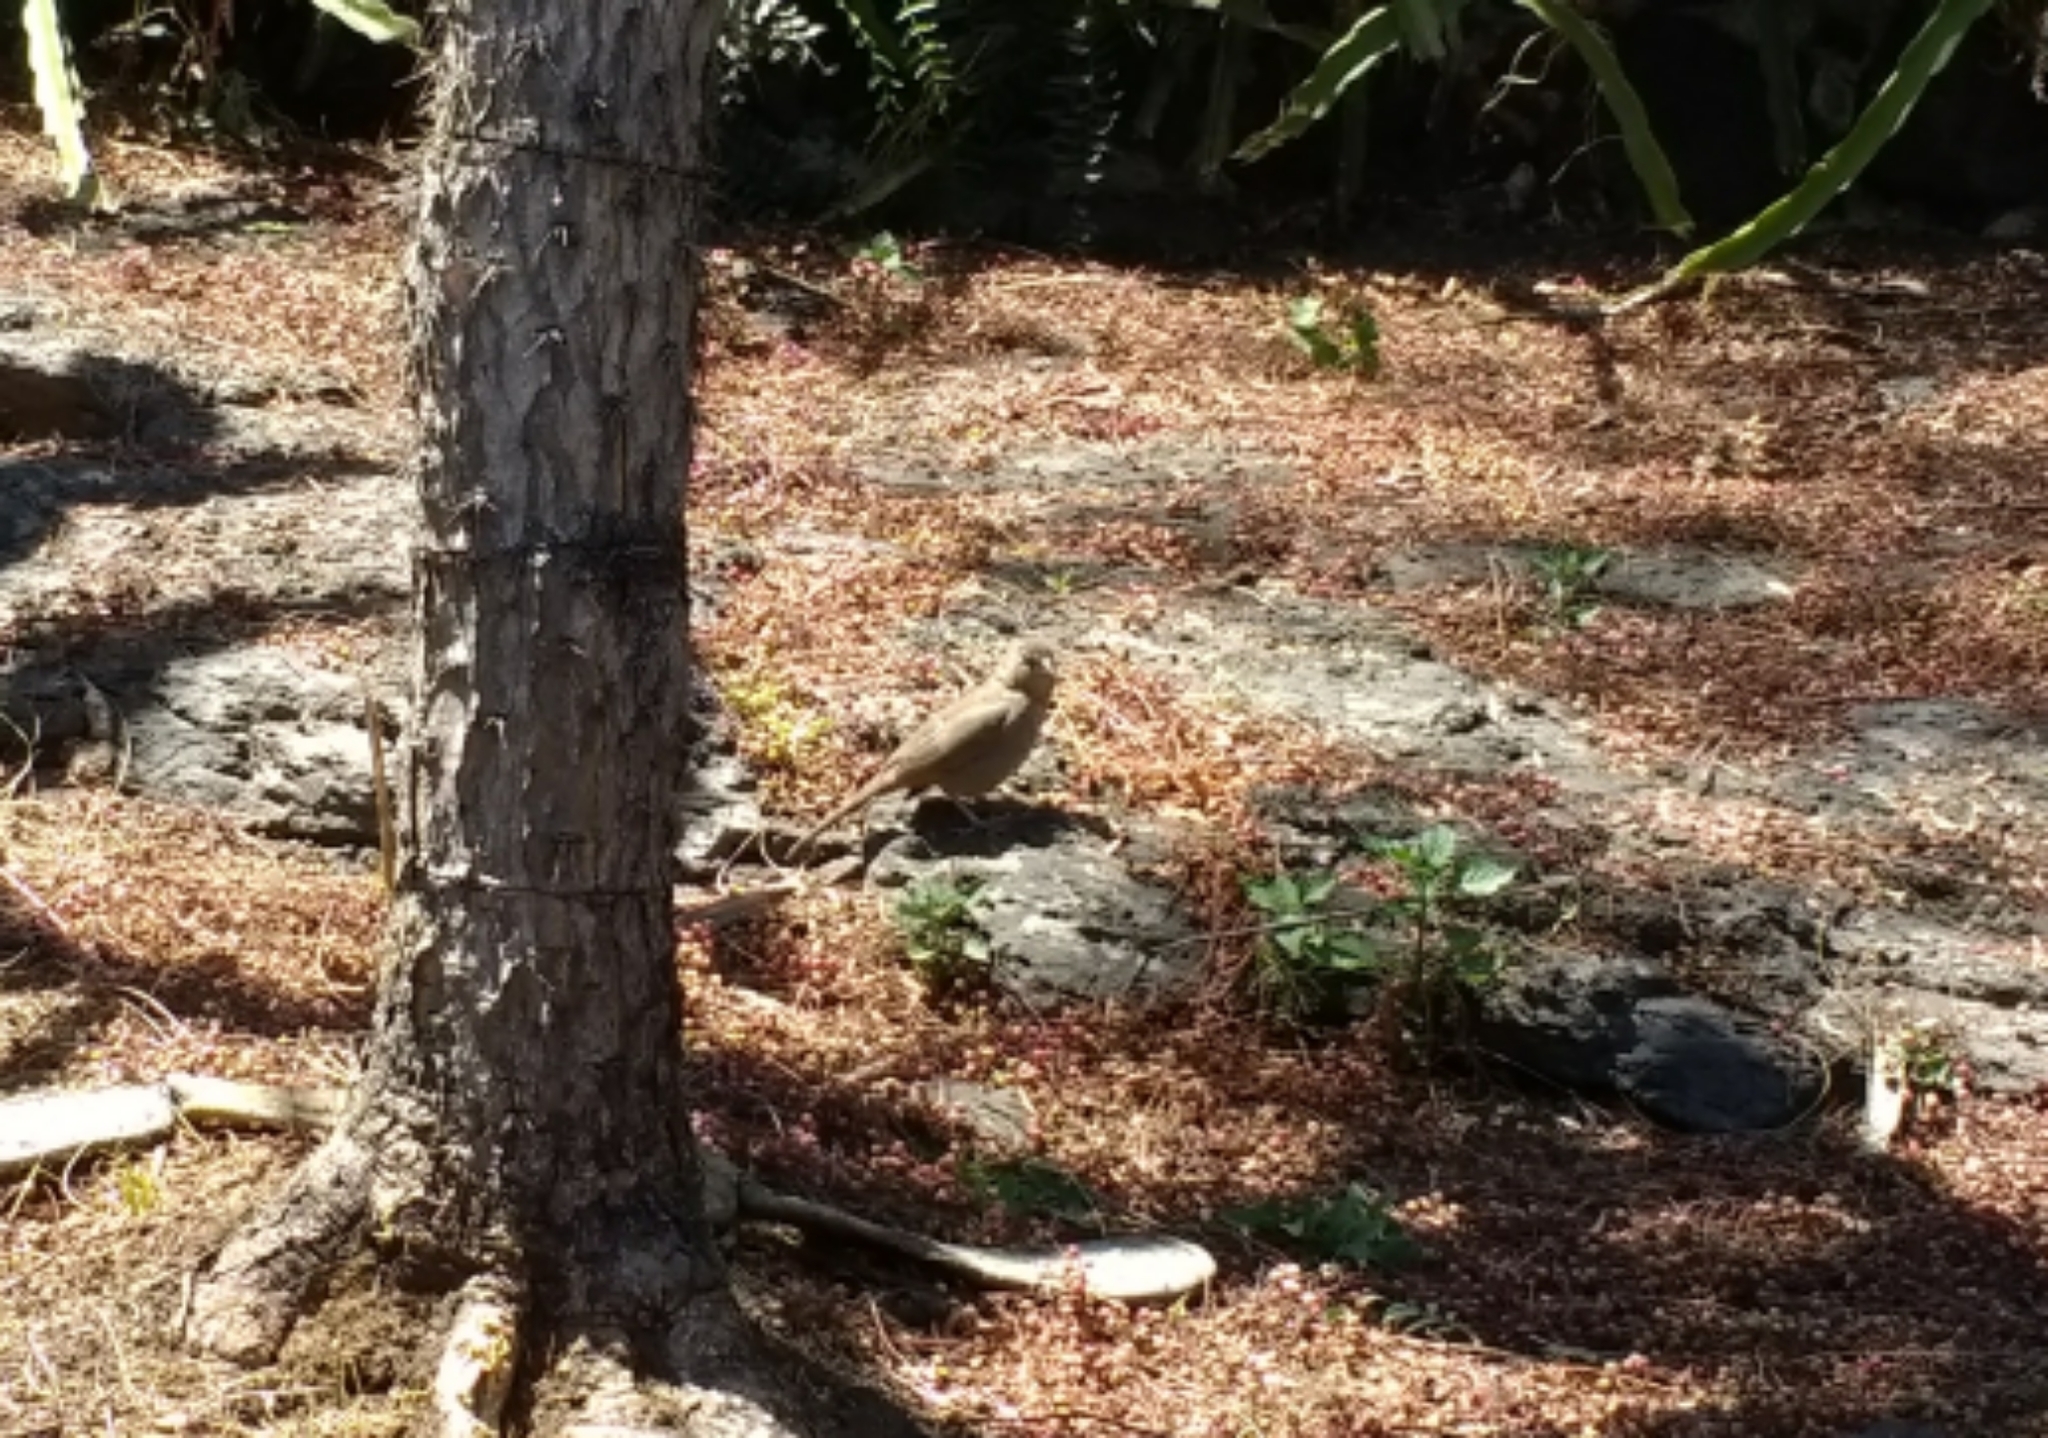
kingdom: Animalia
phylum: Chordata
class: Aves
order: Passeriformes
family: Passerellidae
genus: Melozone
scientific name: Melozone fusca
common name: Canyon towhee
